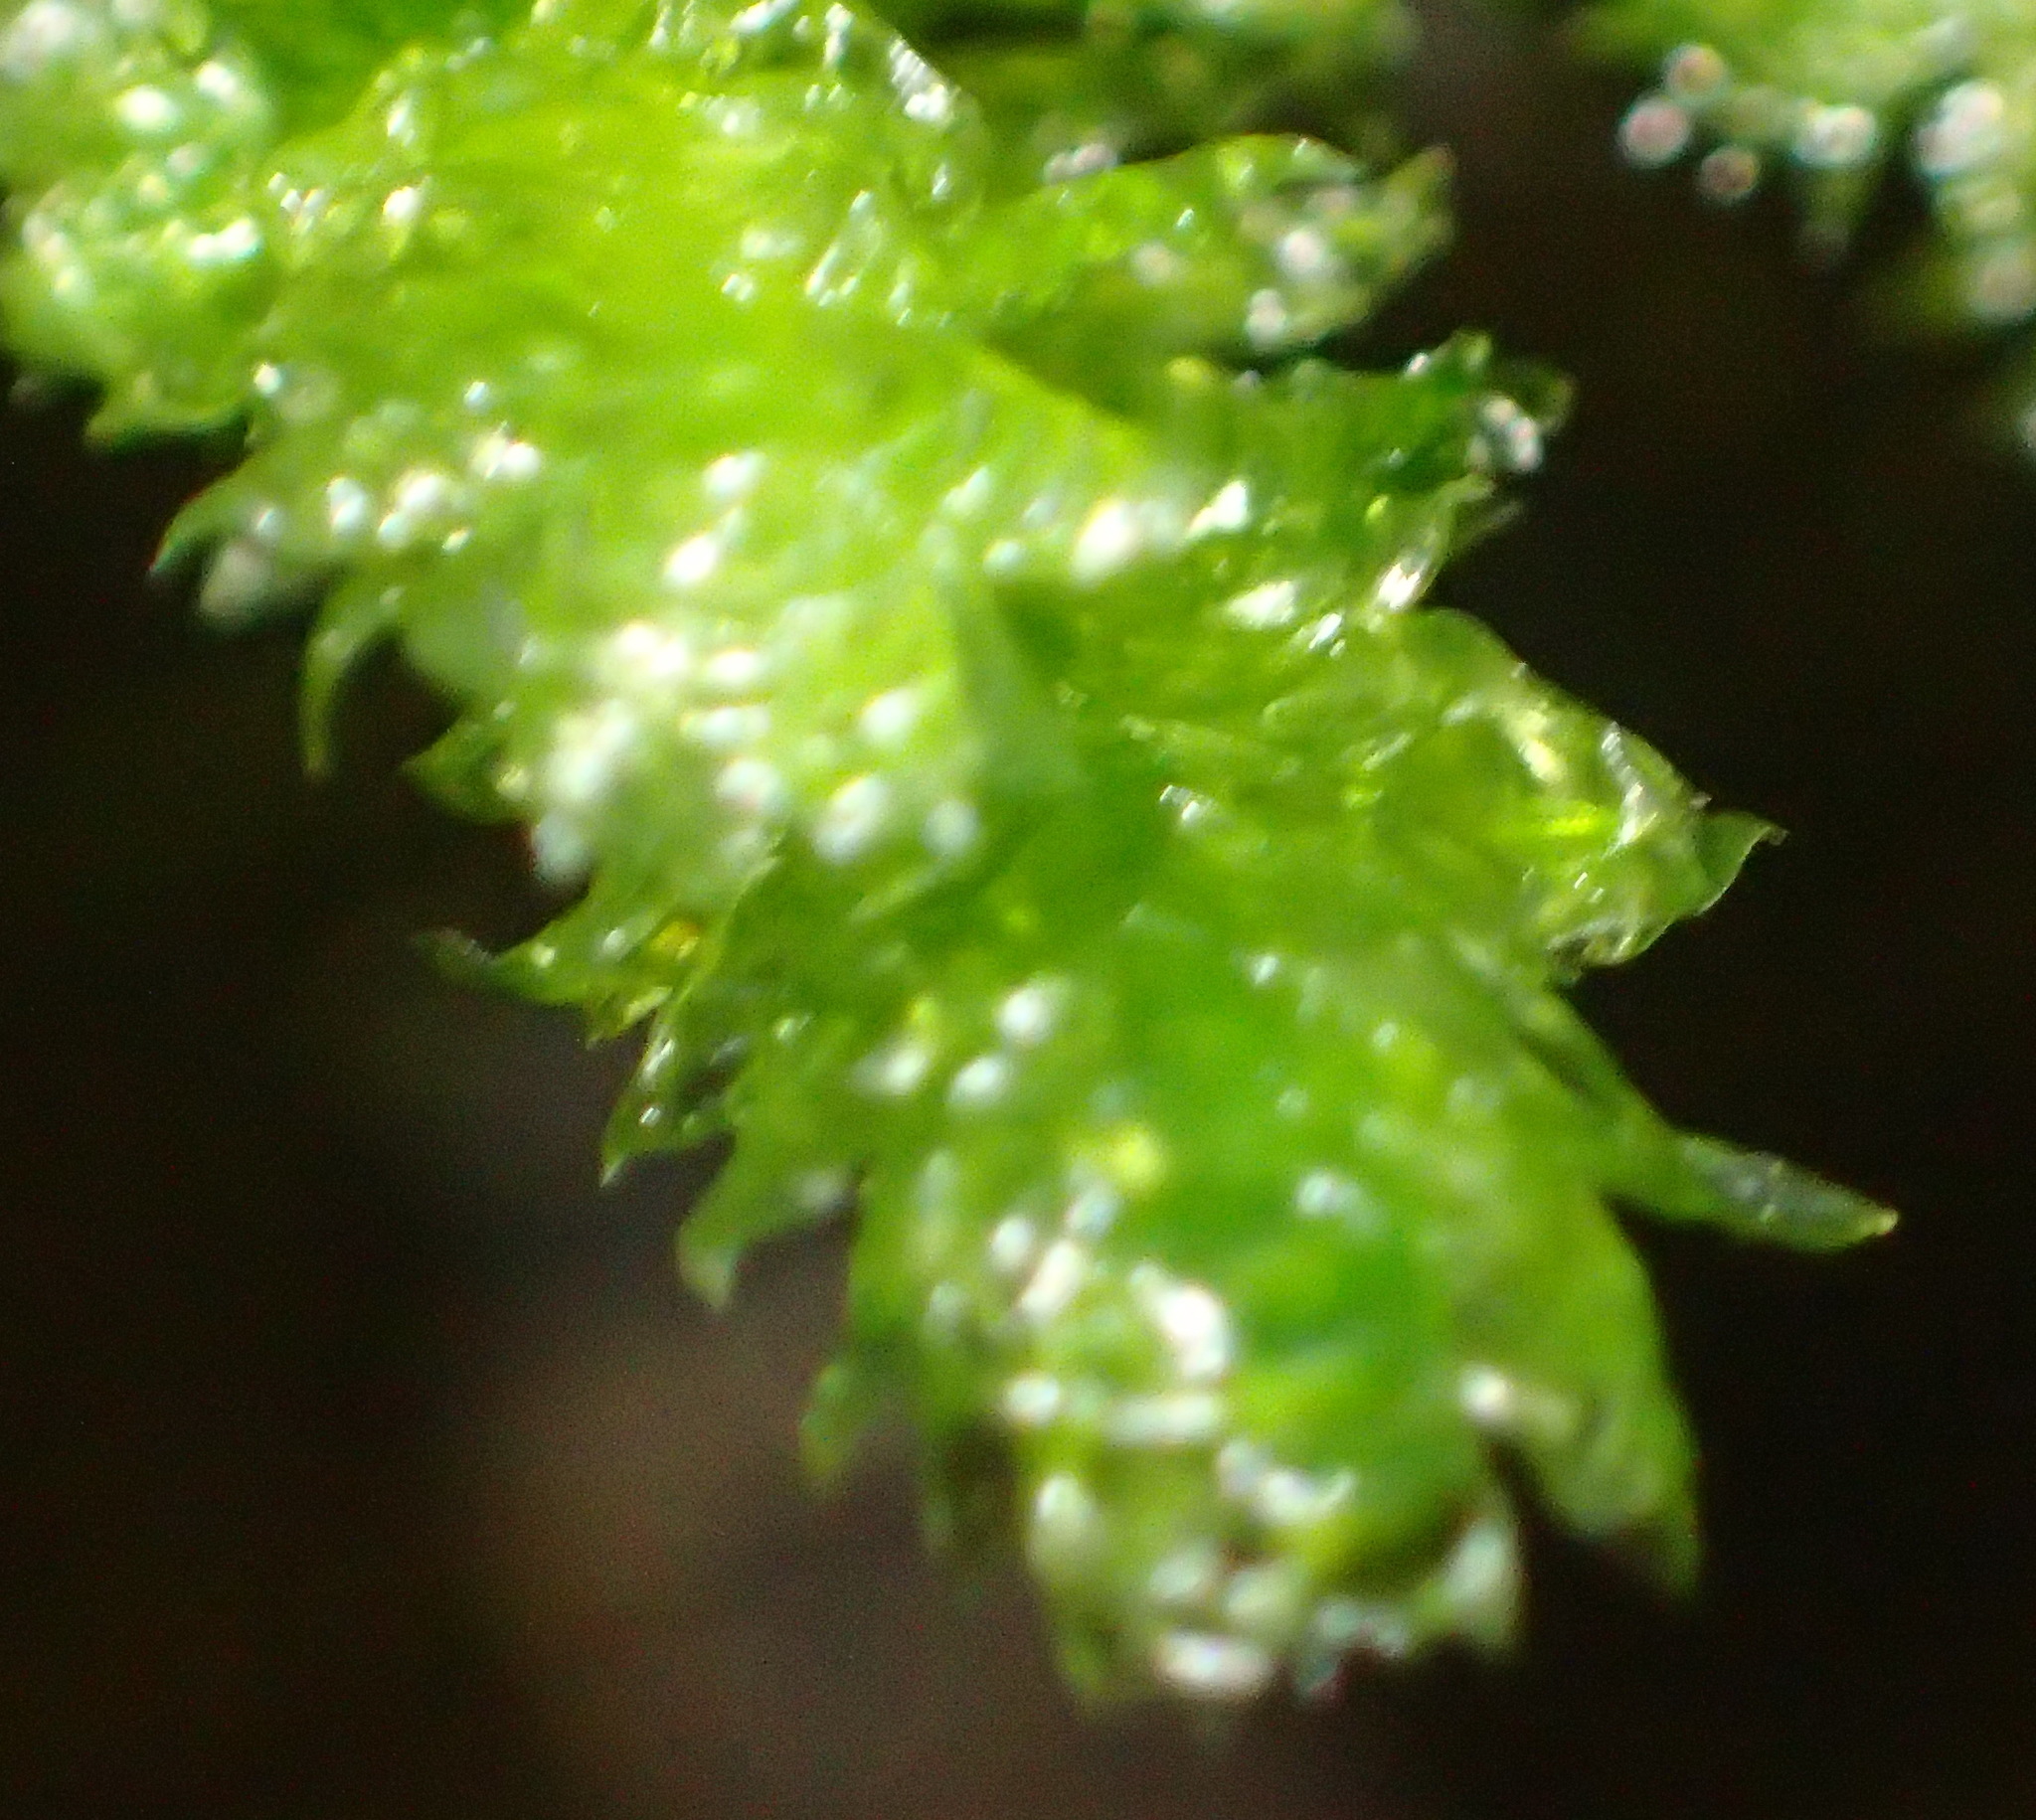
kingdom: Plantae
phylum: Bryophyta
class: Bryopsida
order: Hypnales
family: Neckeraceae
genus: Alleniella
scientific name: Alleniella ehrenbergii
